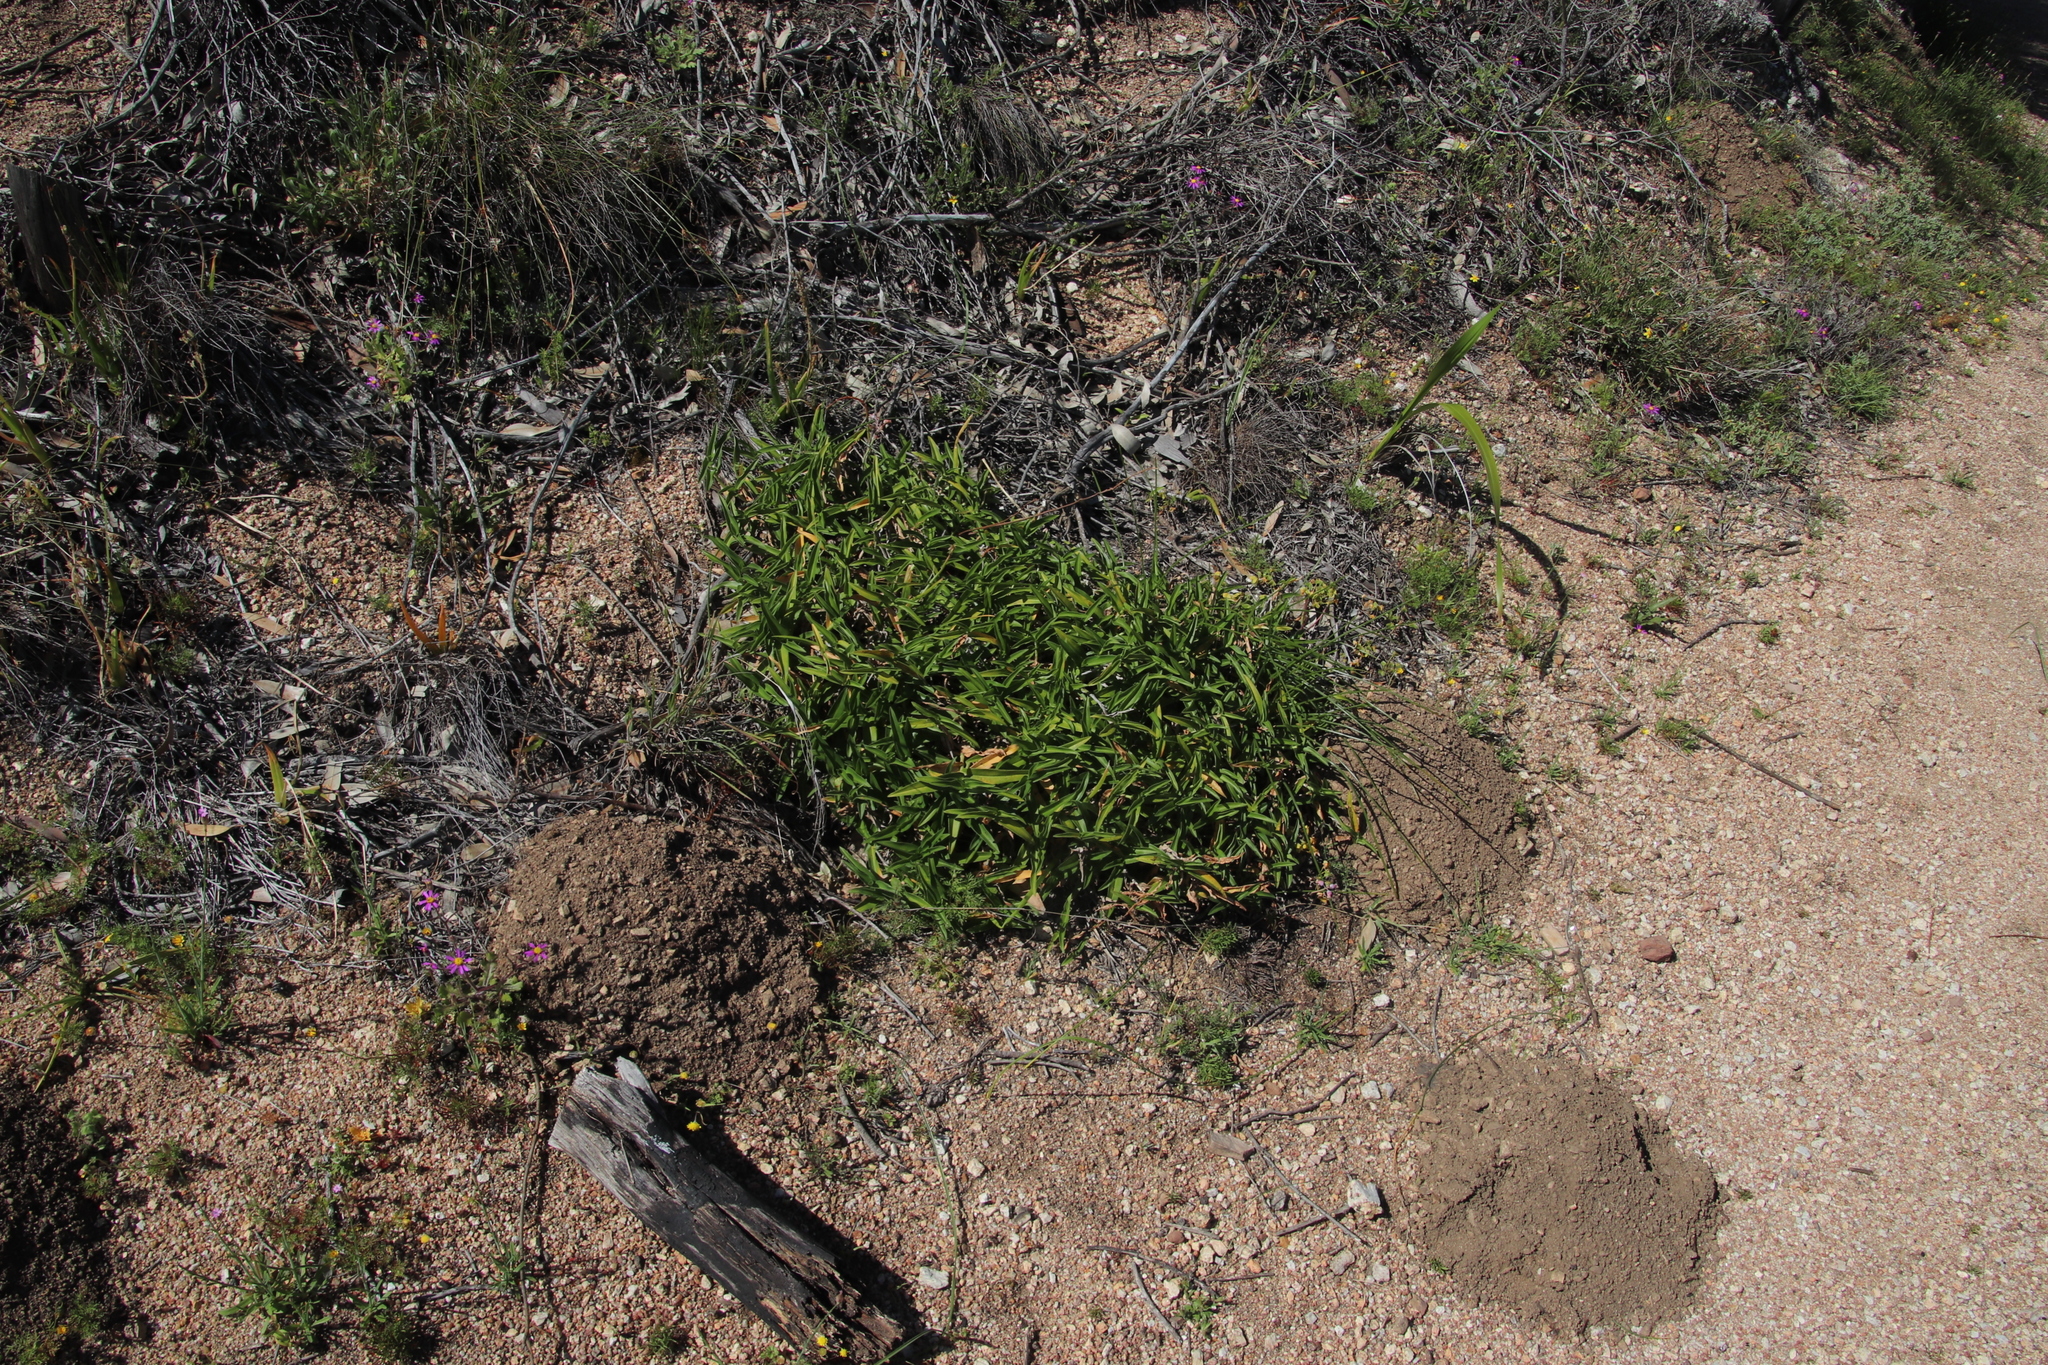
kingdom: Plantae
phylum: Tracheophyta
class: Liliopsida
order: Commelinales
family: Commelinaceae
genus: Commelina
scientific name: Commelina africana
